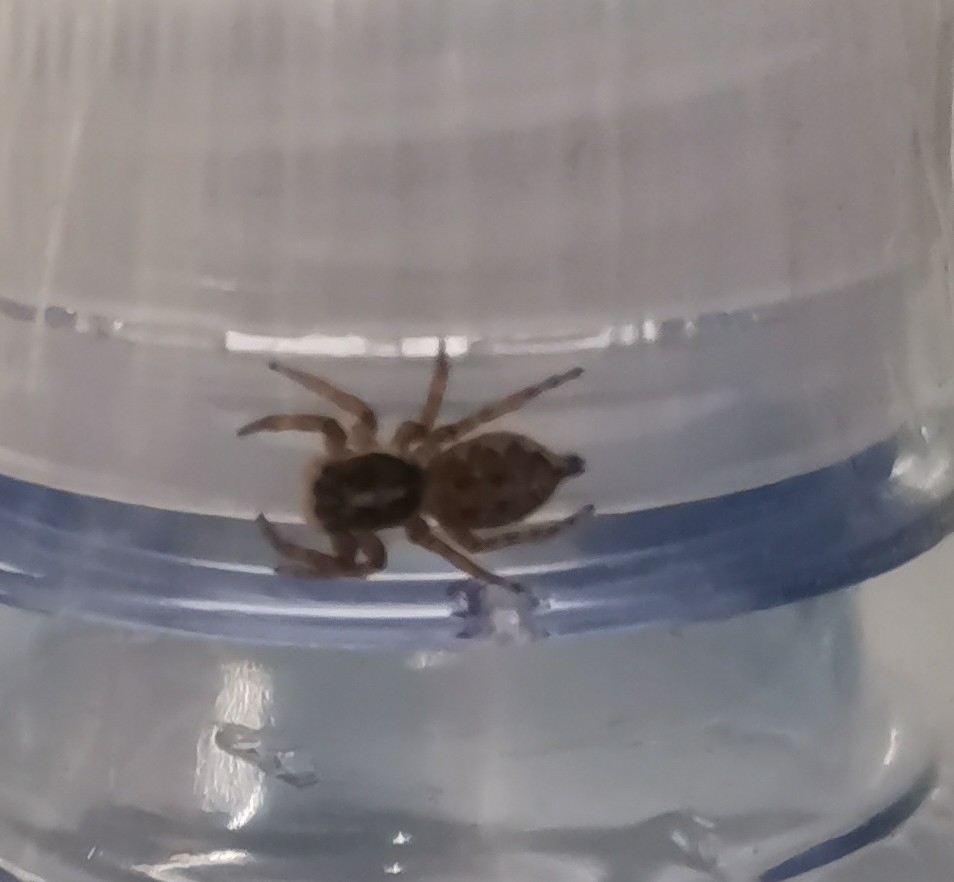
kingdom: Animalia
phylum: Arthropoda
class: Arachnida
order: Araneae
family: Salticidae
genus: Menemerus
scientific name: Menemerus semilimbatus
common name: Jumping spider
